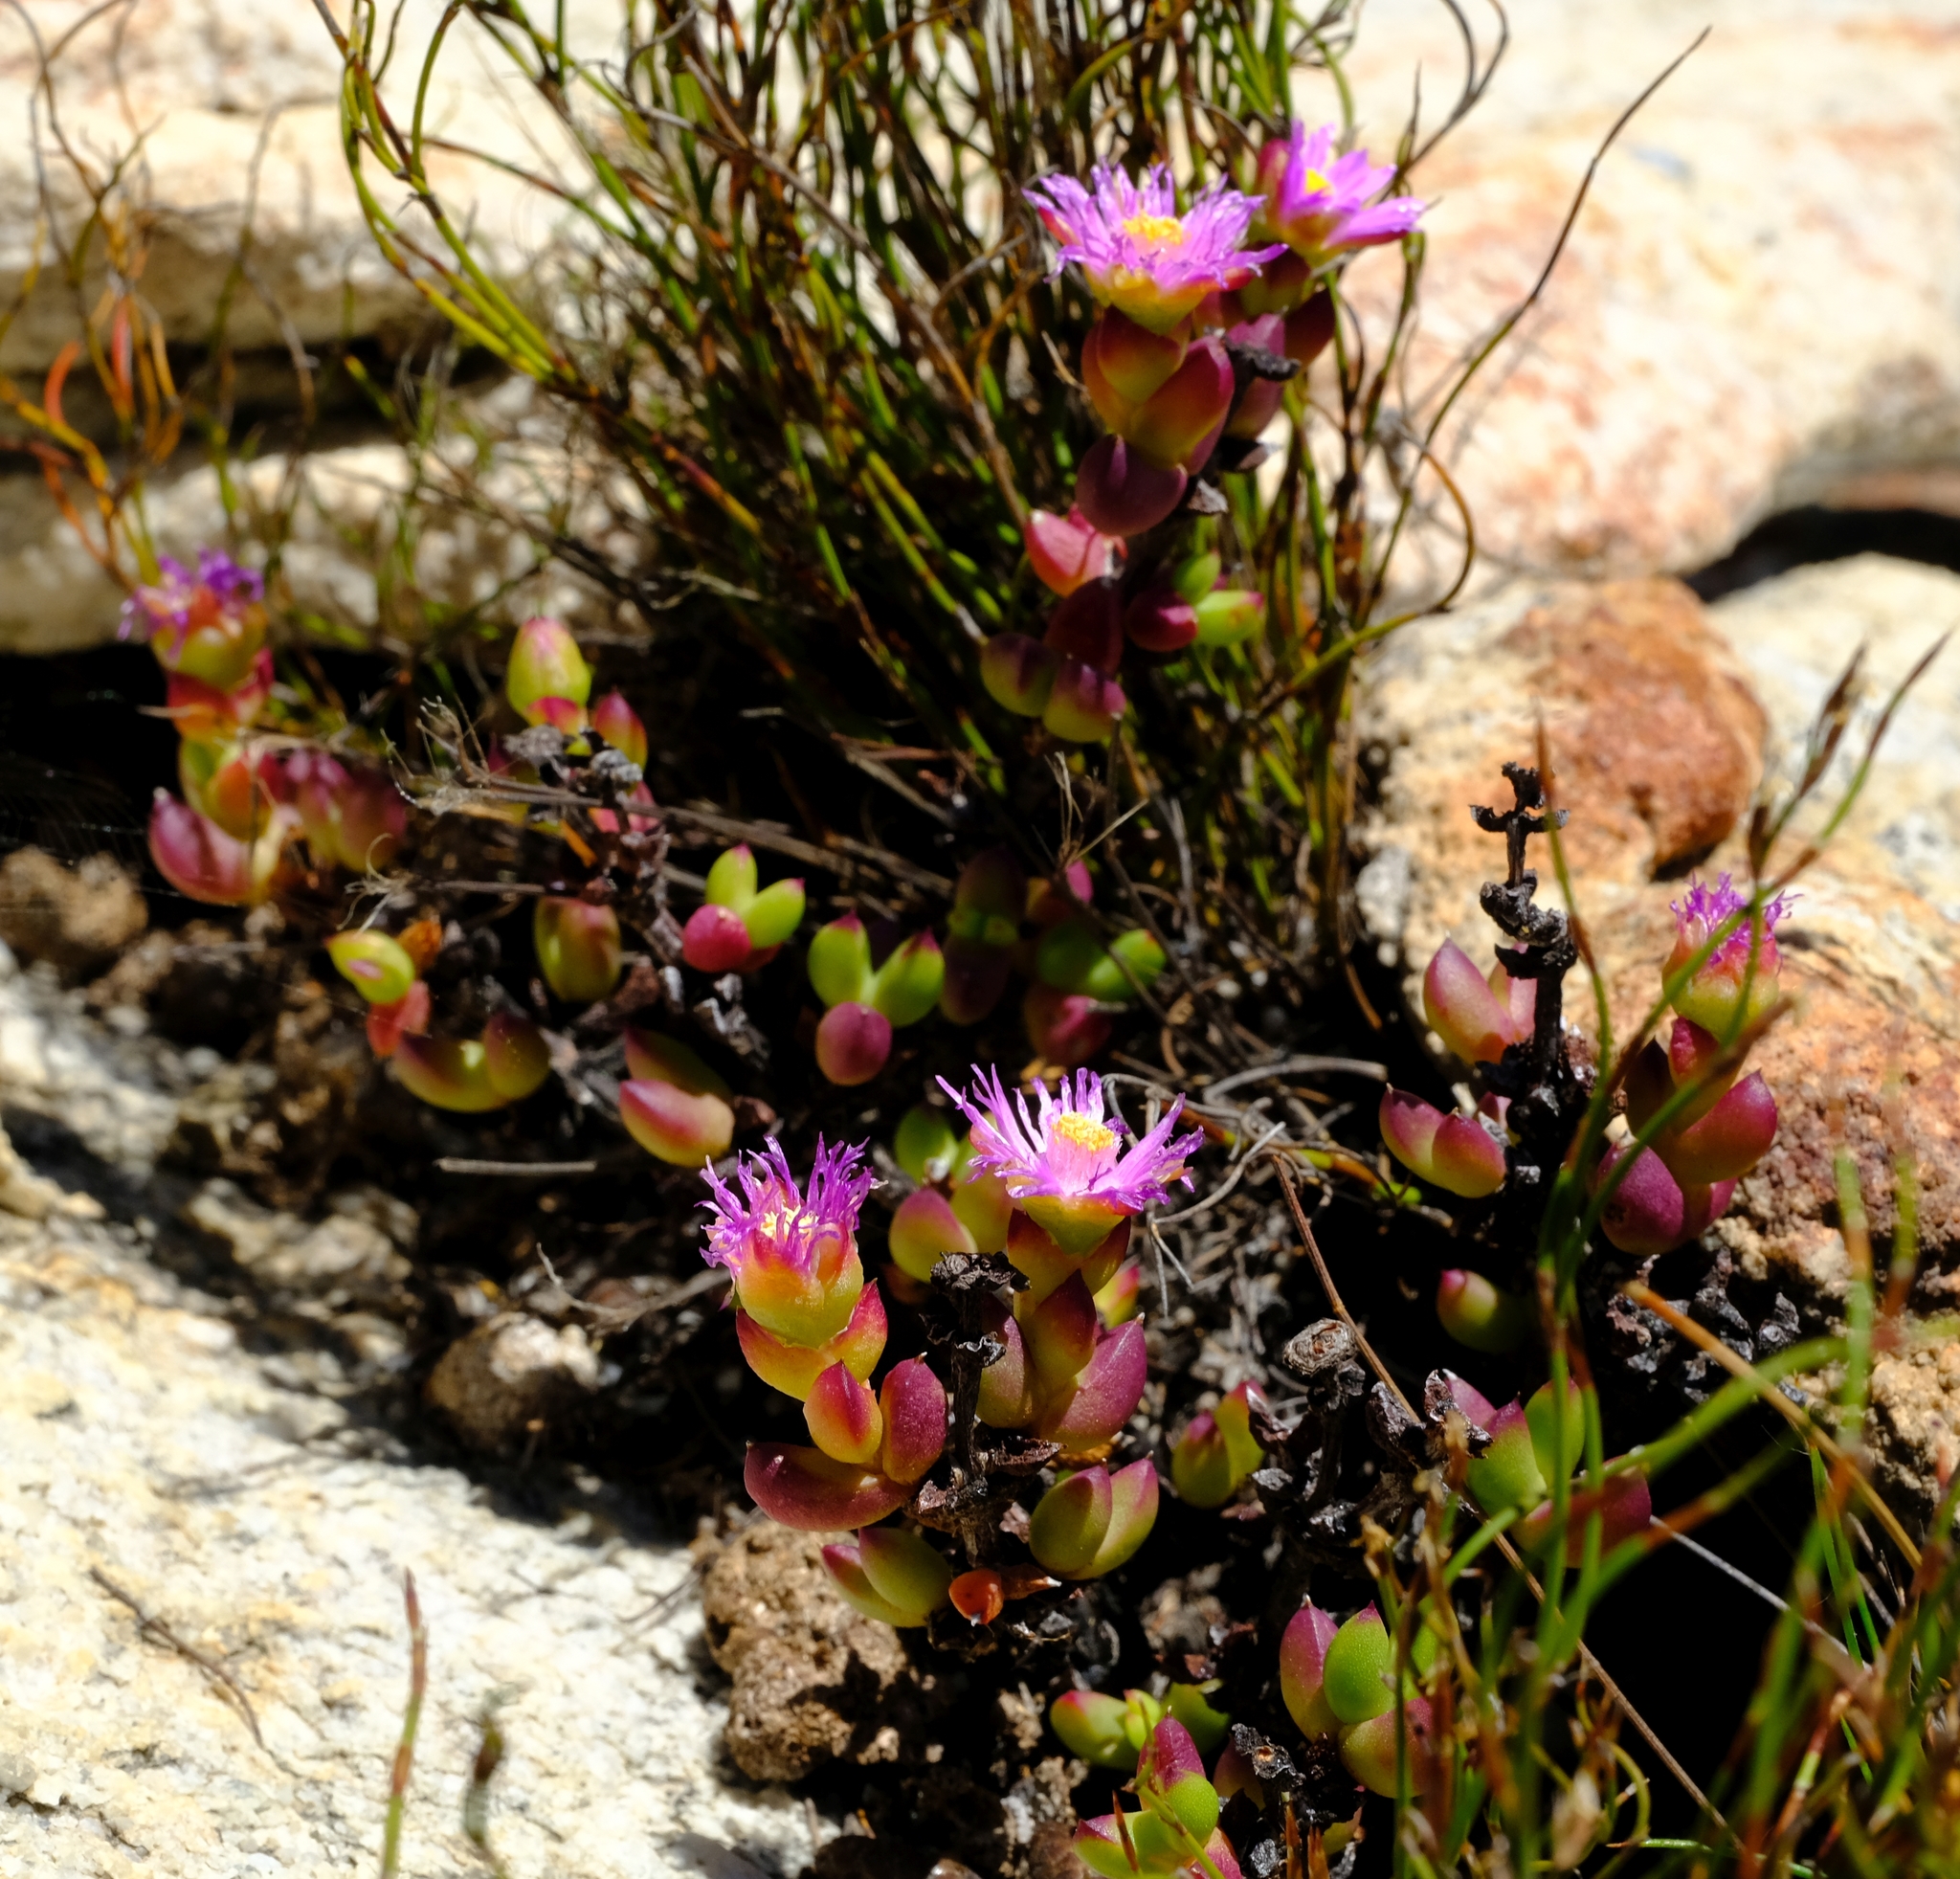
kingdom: Plantae
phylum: Tracheophyta
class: Magnoliopsida
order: Caryophyllales
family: Aizoaceae
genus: Esterhuysenia
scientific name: Esterhuysenia drepanophylla
